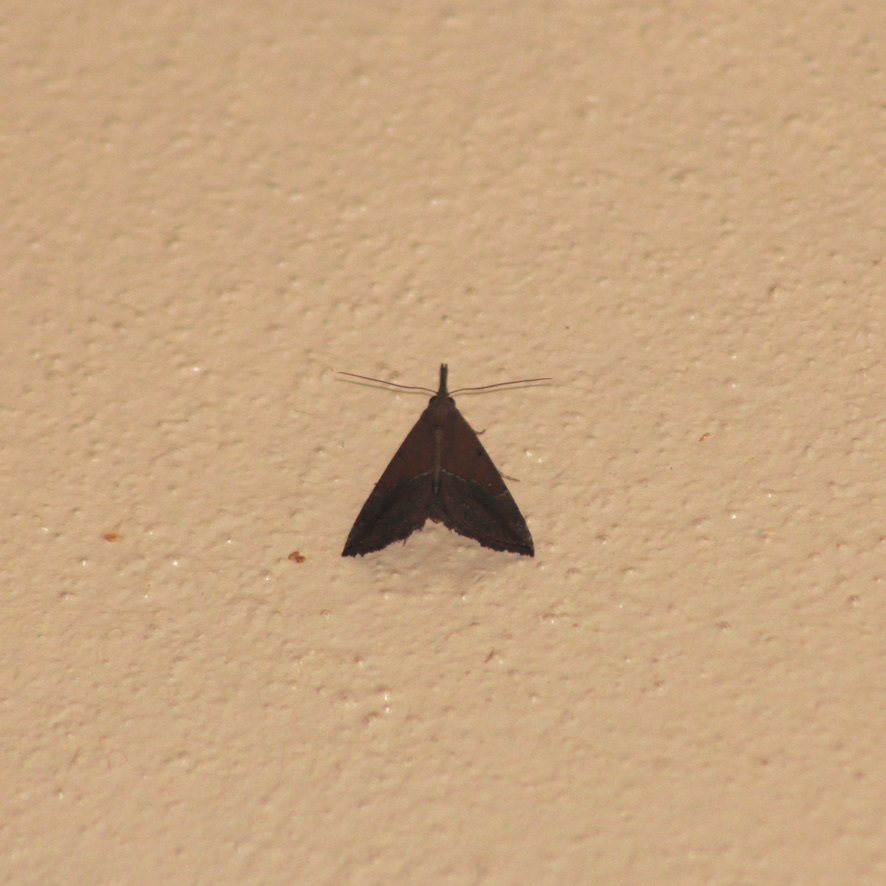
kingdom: Animalia
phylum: Arthropoda
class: Insecta
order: Lepidoptera
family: Erebidae
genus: Hypena
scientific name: Hypena porrectalis
